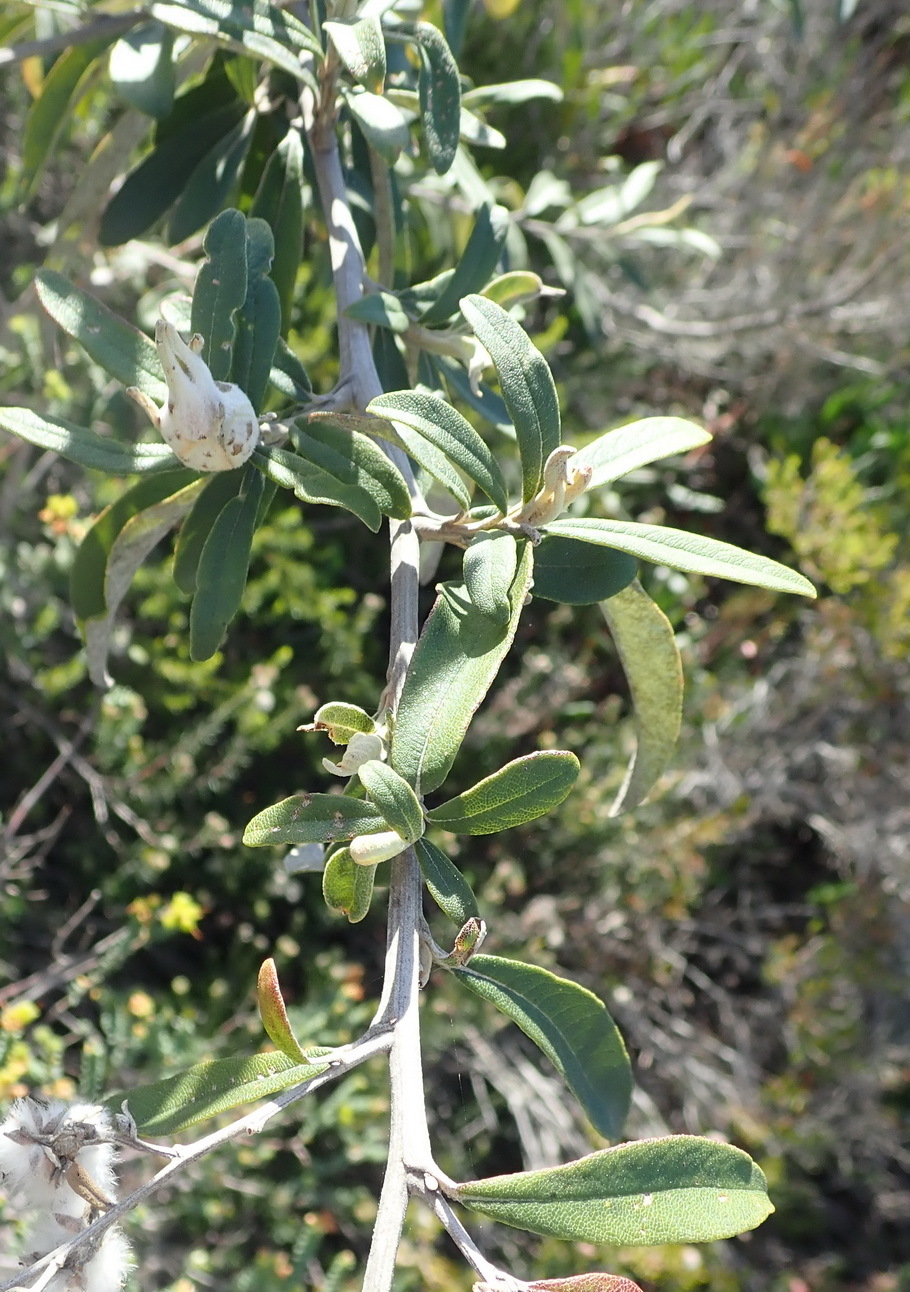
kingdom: Plantae
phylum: Tracheophyta
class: Magnoliopsida
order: Asterales
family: Asteraceae
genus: Tarchonanthus
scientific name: Tarchonanthus littoralis
